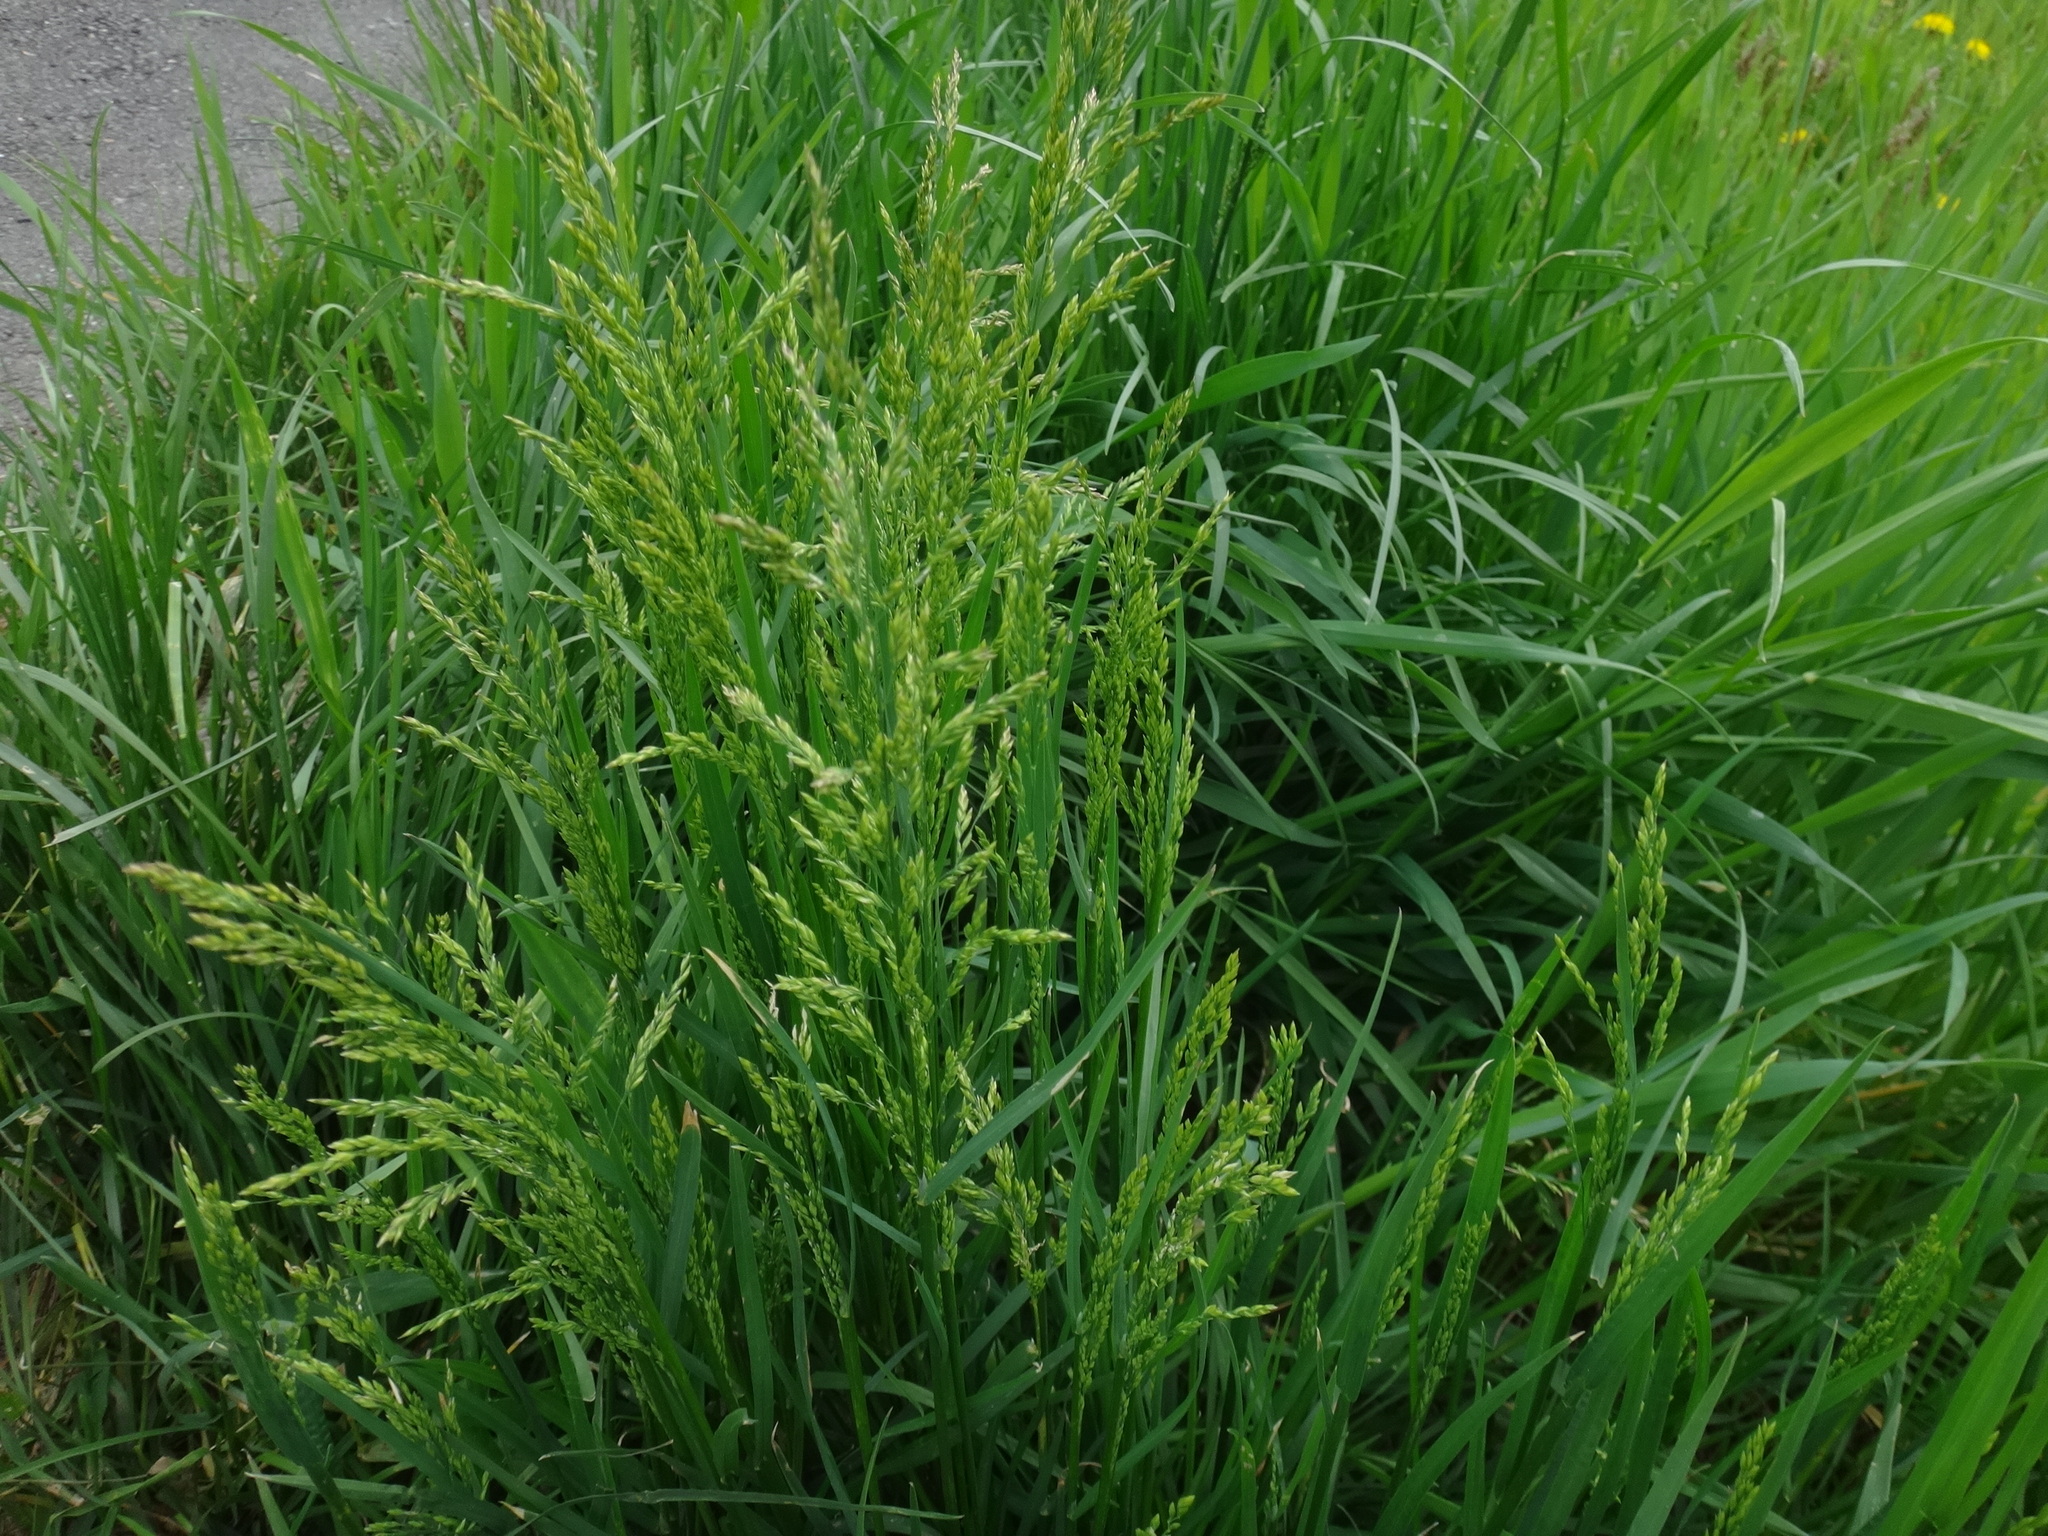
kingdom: Plantae
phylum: Tracheophyta
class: Liliopsida
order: Poales
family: Poaceae
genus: Poa
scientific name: Poa trivialis
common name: Rough bluegrass
